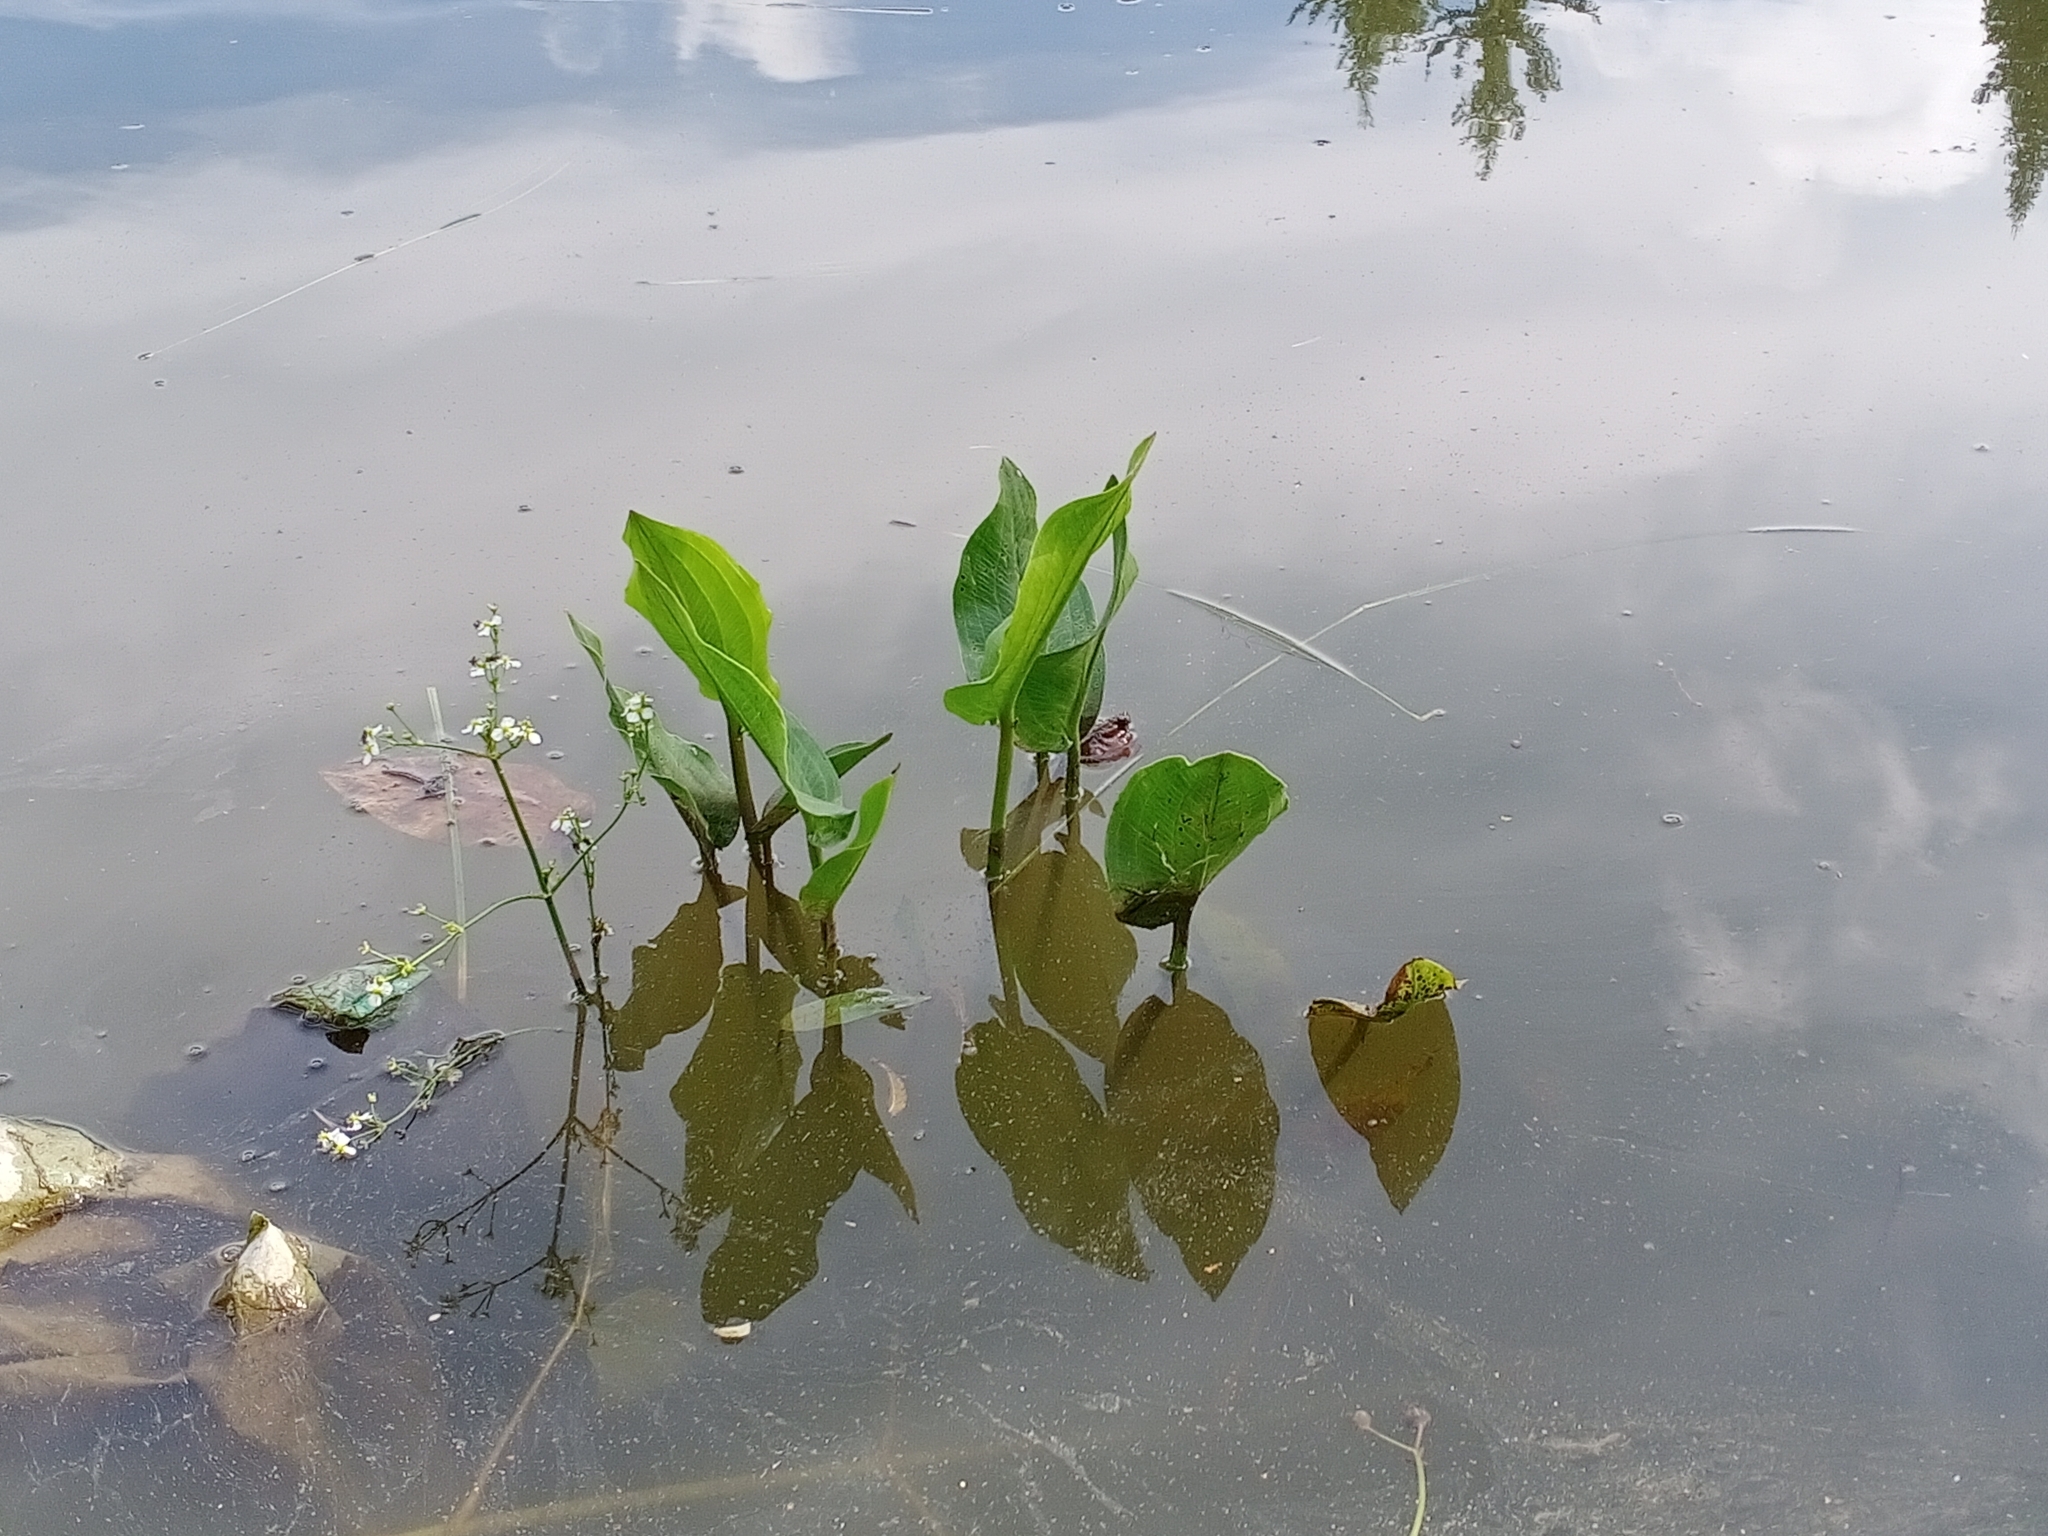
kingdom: Plantae
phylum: Tracheophyta
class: Liliopsida
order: Alismatales
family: Alismataceae
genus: Alisma
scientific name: Alisma plantago-aquatica
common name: Water-plantain
